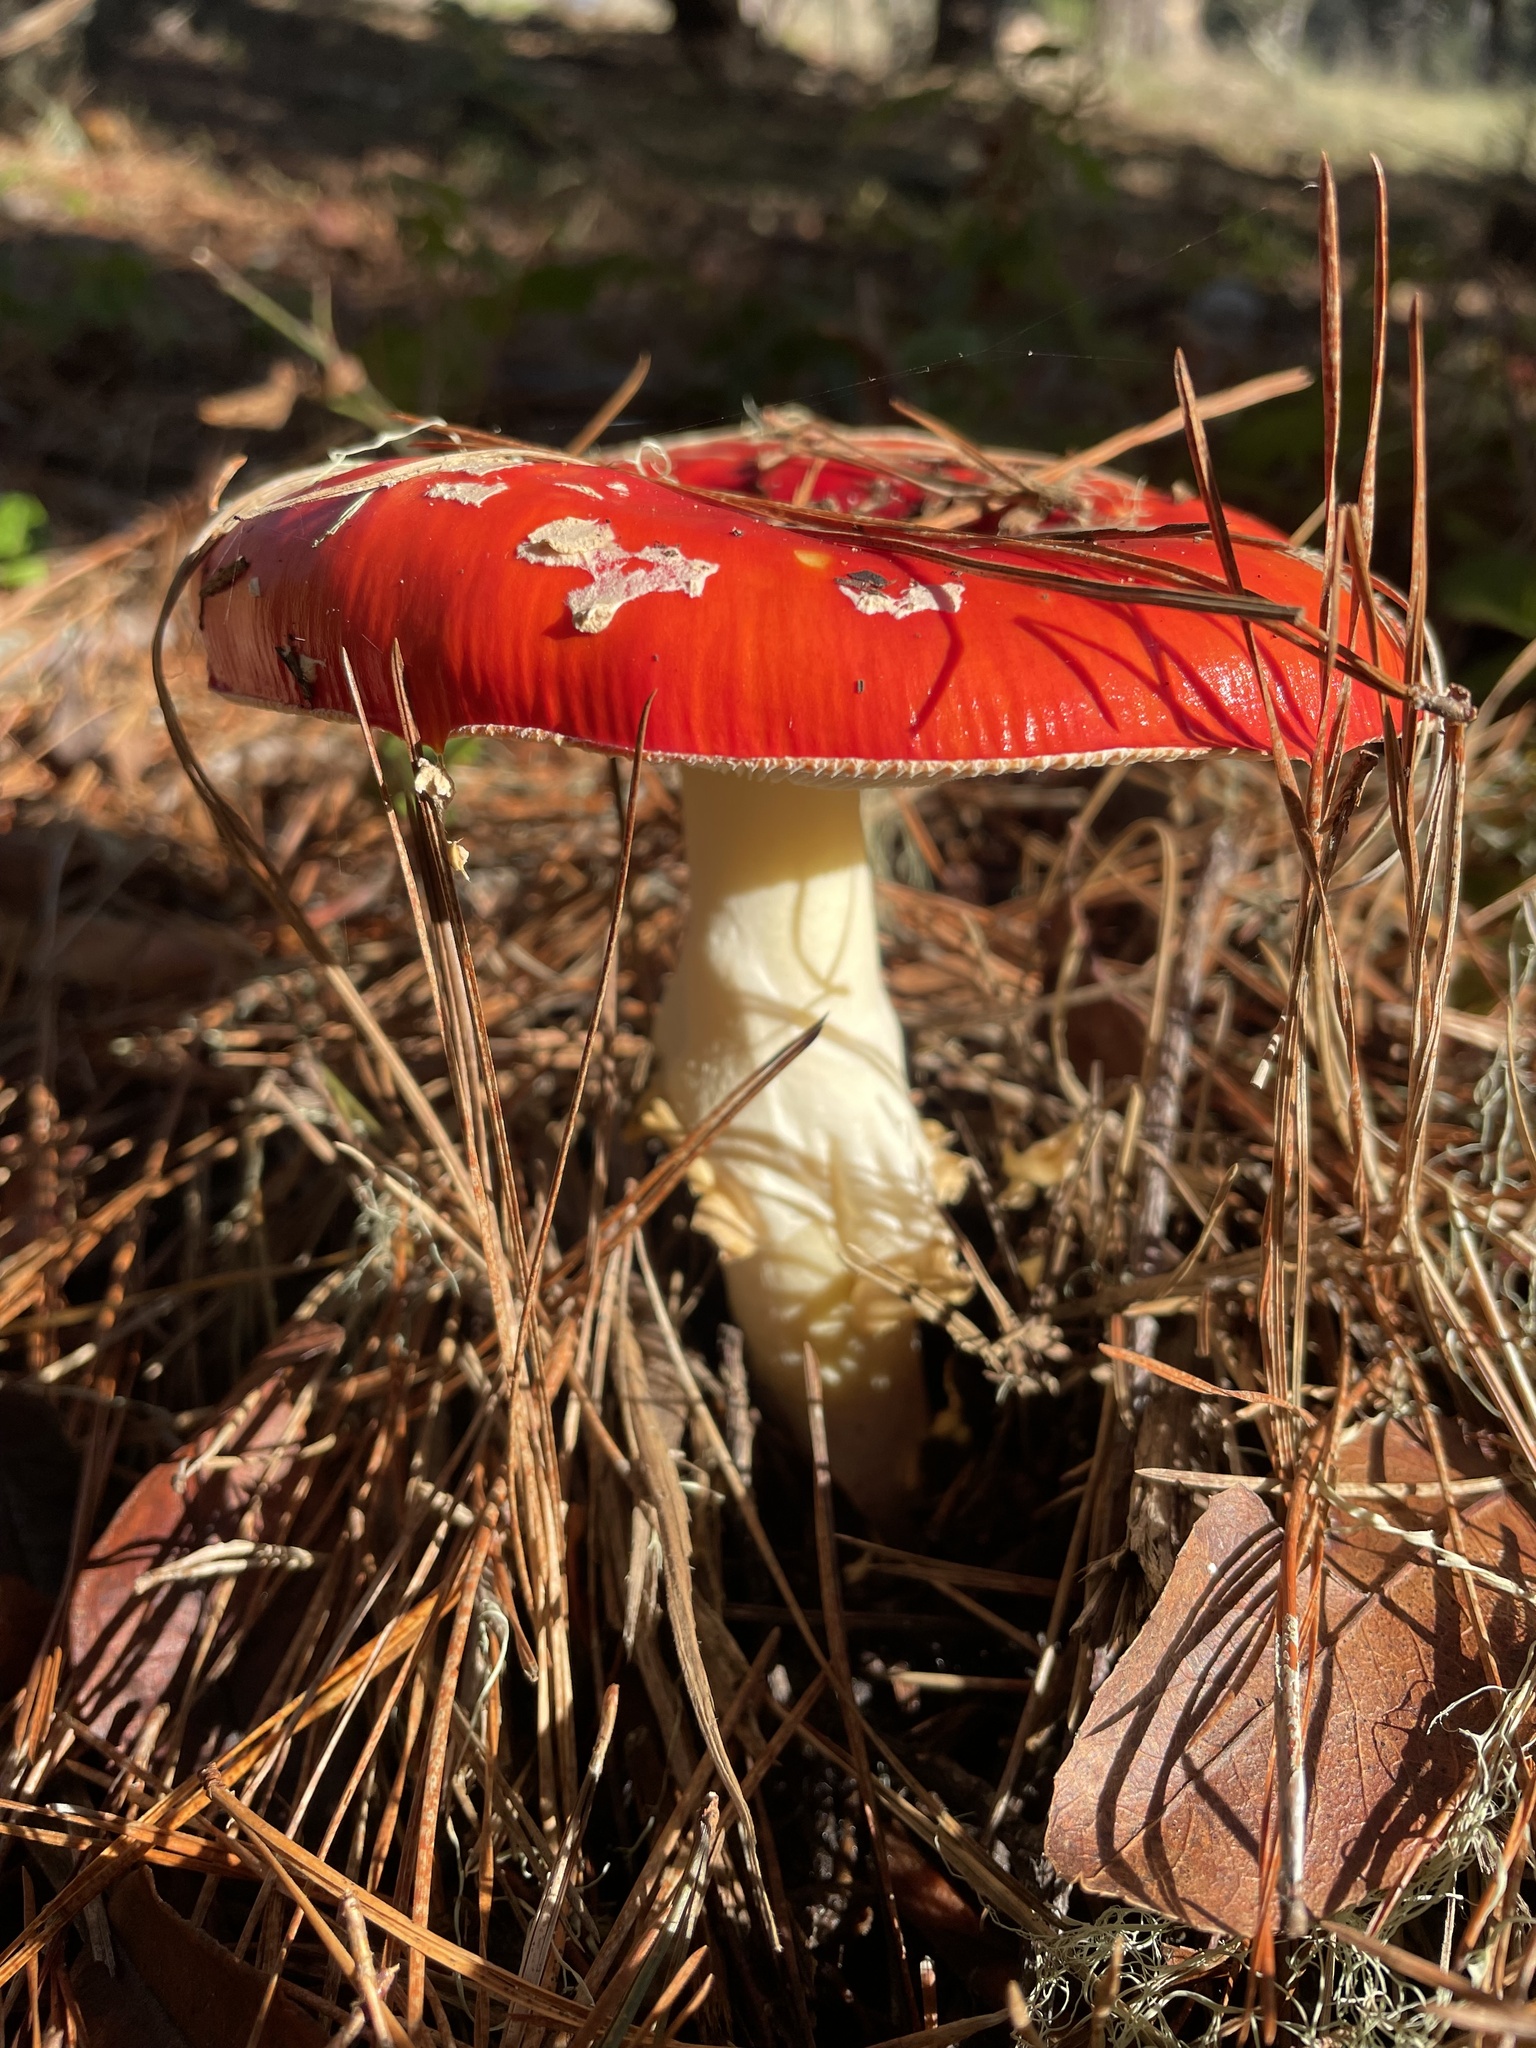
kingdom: Fungi
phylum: Basidiomycota
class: Agaricomycetes
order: Agaricales
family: Amanitaceae
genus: Amanita
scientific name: Amanita muscaria
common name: Fly agaric
